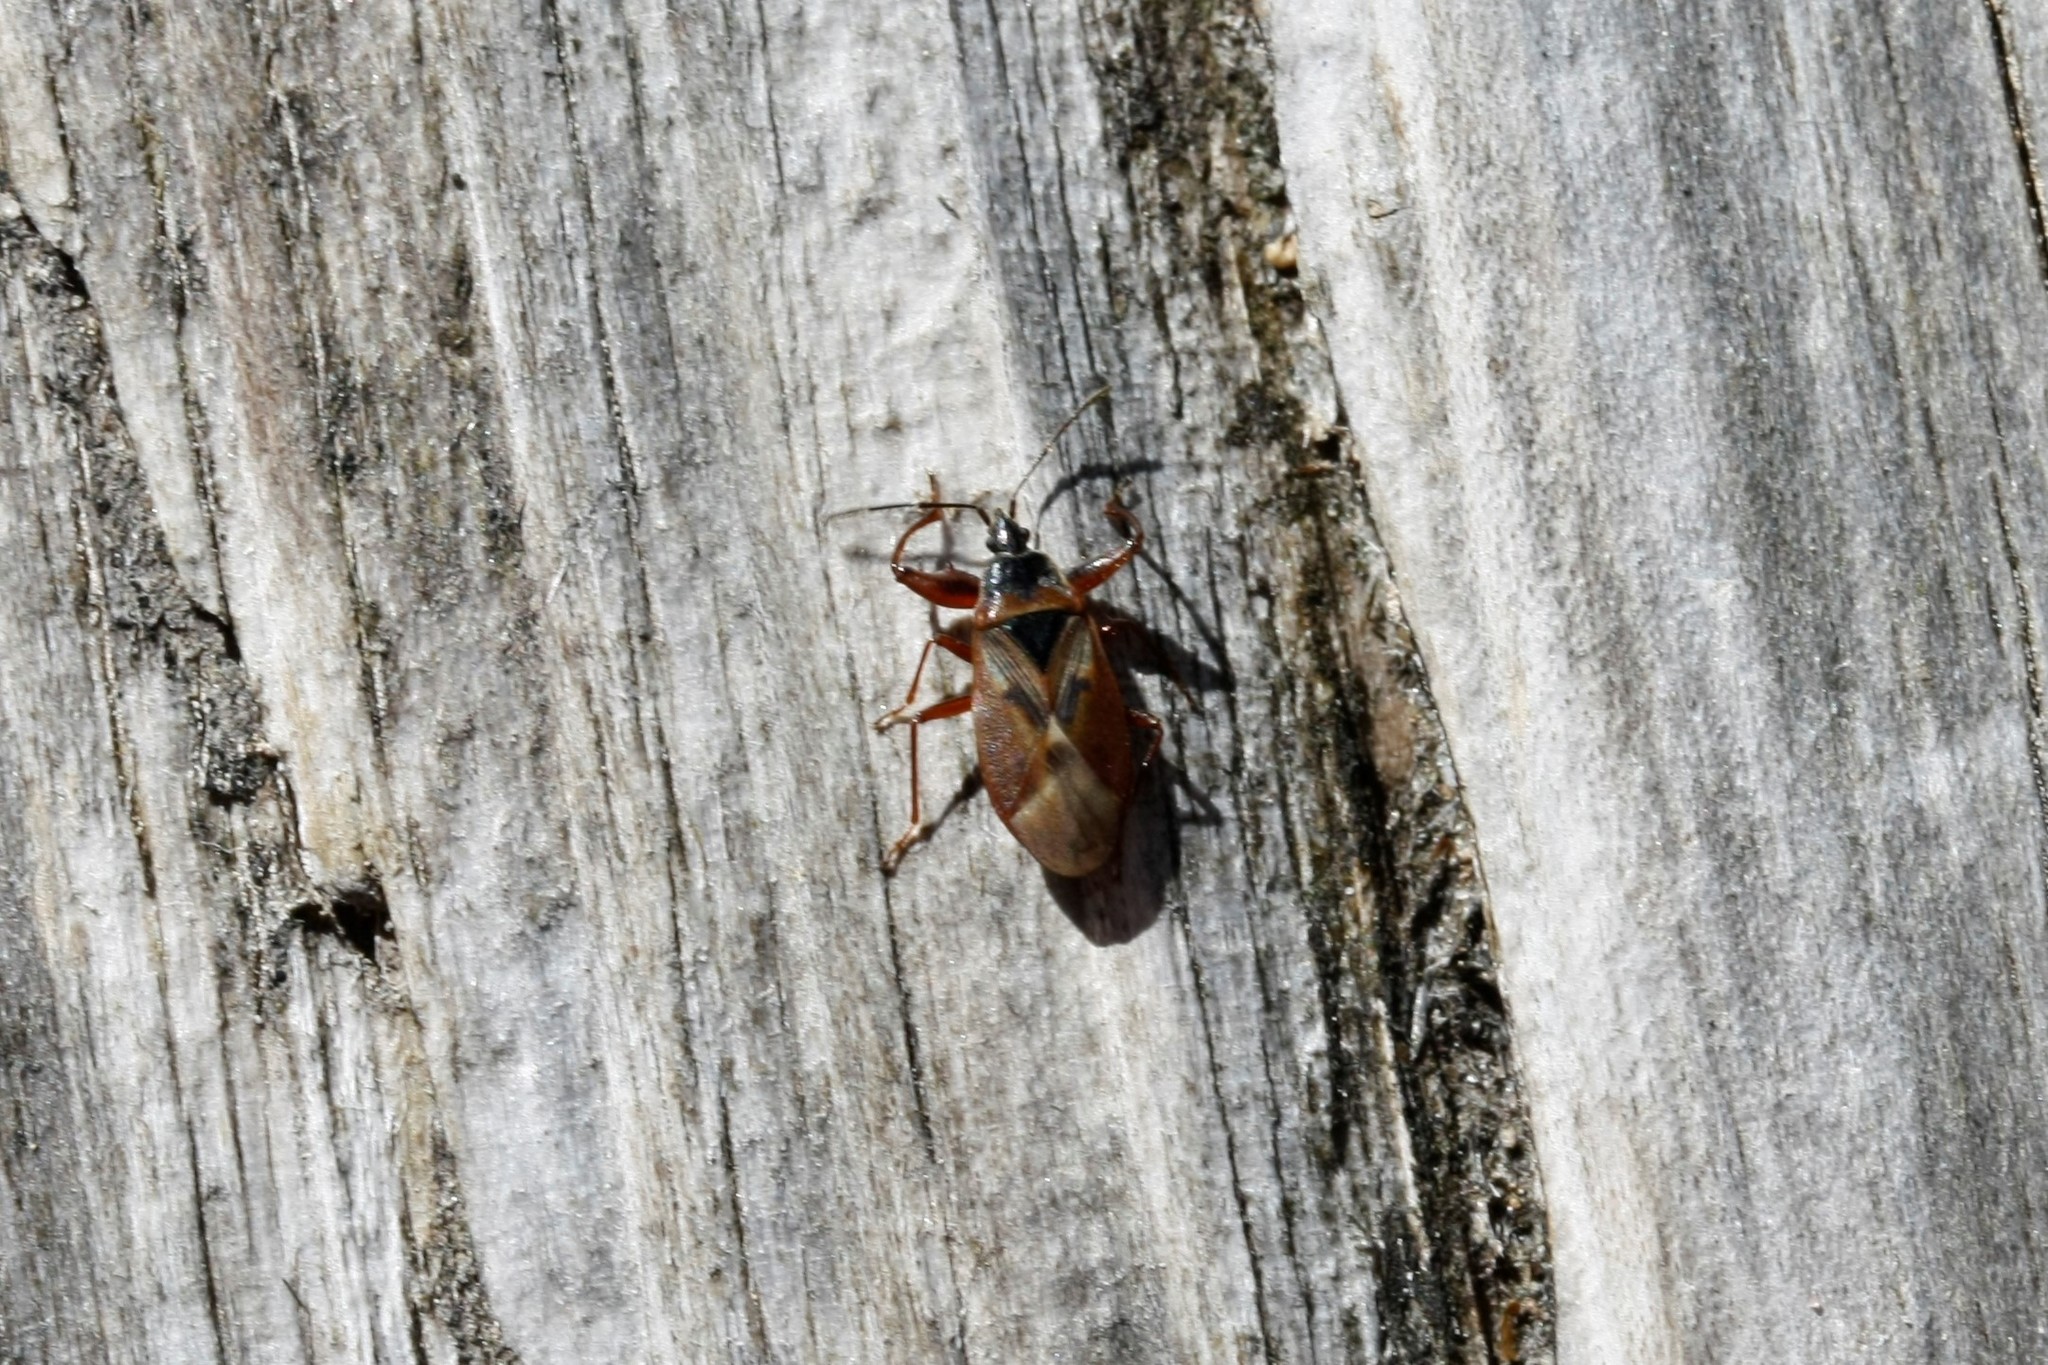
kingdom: Animalia
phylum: Arthropoda
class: Insecta
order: Hemiptera
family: Rhyparochromidae
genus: Gastrodes
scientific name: Gastrodes abietum
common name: Spruce cone bug
